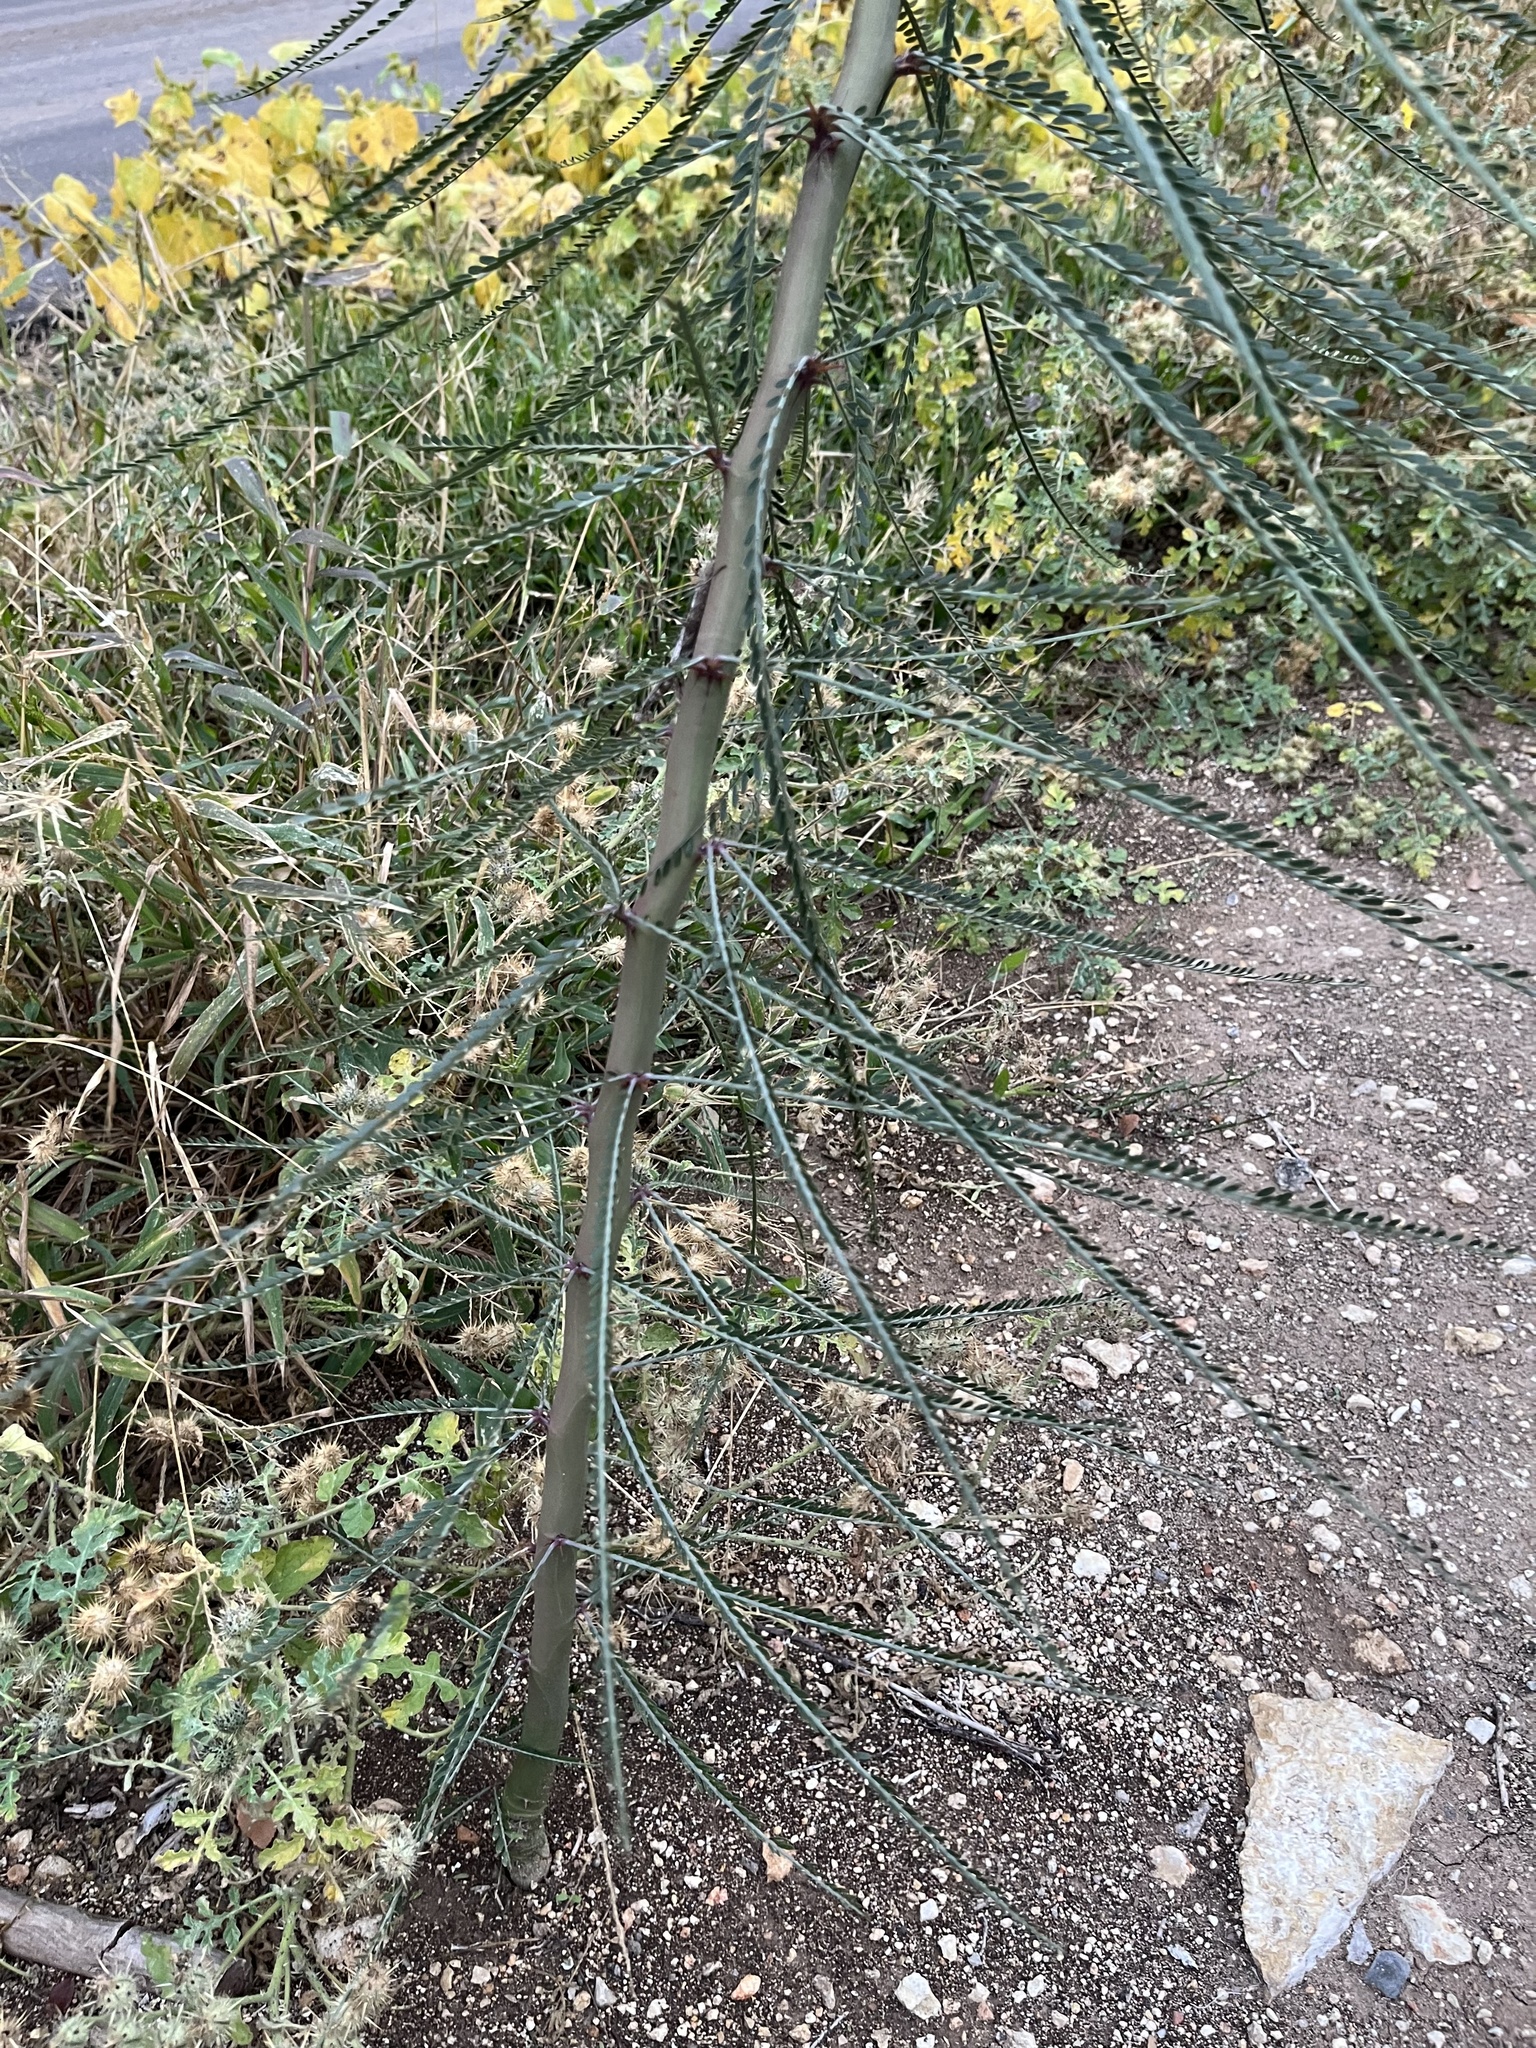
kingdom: Plantae
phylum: Tracheophyta
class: Magnoliopsida
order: Fabales
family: Fabaceae
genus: Parkinsonia
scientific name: Parkinsonia aculeata
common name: Jerusalem thorn
